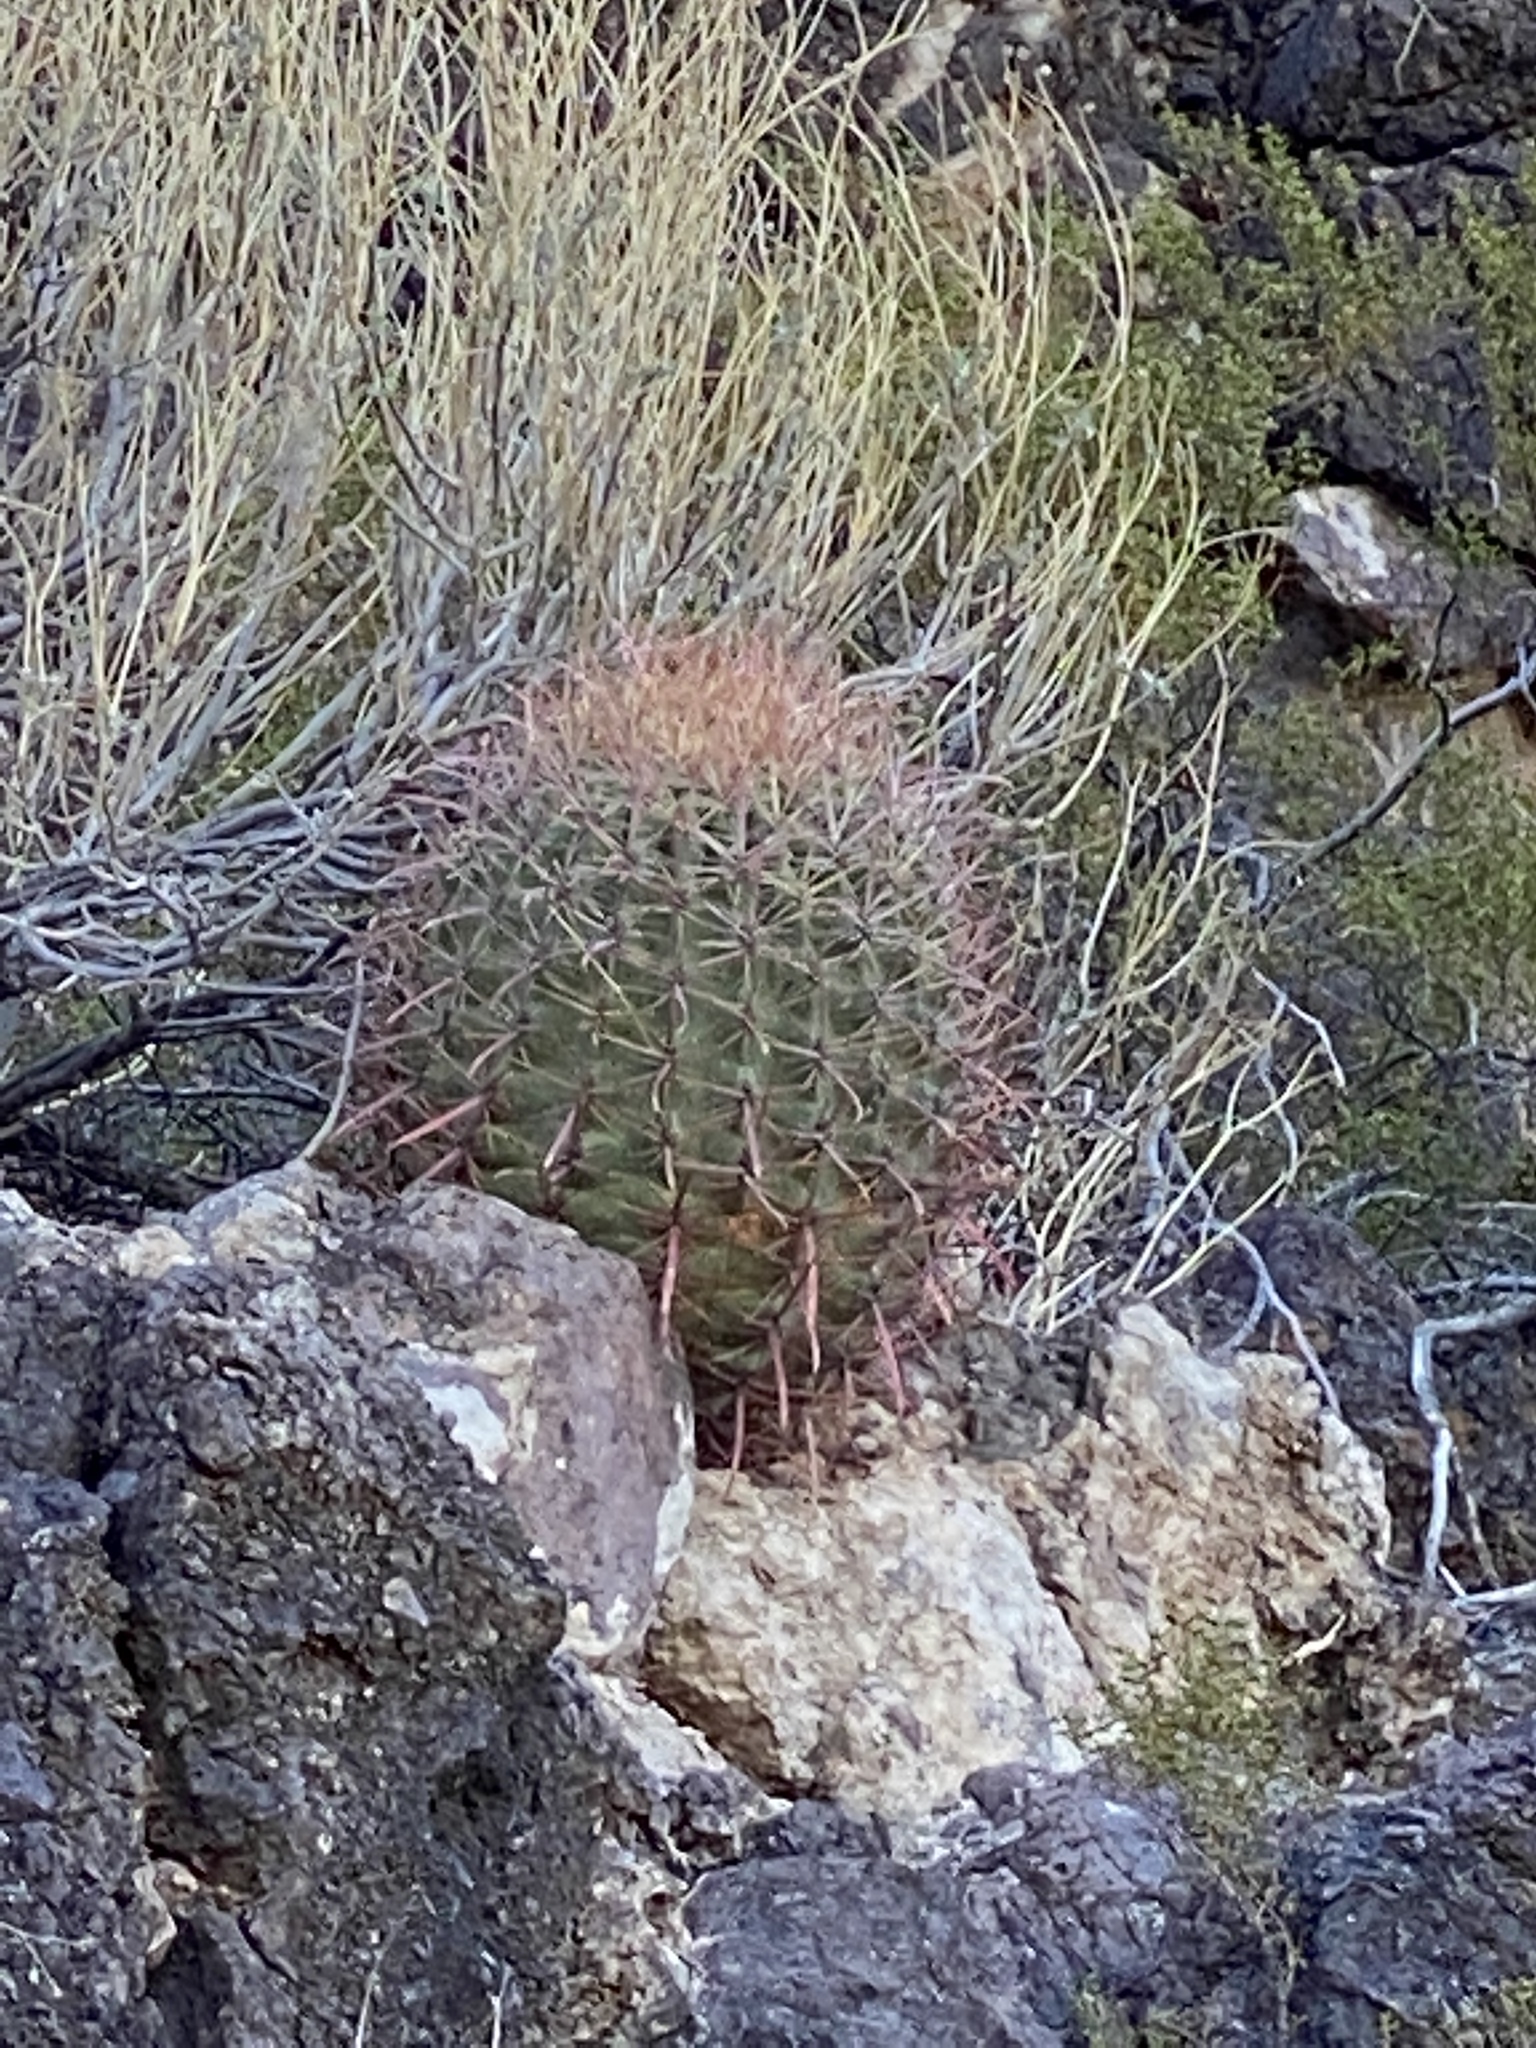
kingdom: Plantae
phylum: Tracheophyta
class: Magnoliopsida
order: Caryophyllales
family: Cactaceae
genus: Ferocactus
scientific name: Ferocactus cylindraceus
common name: California barrel cactus
